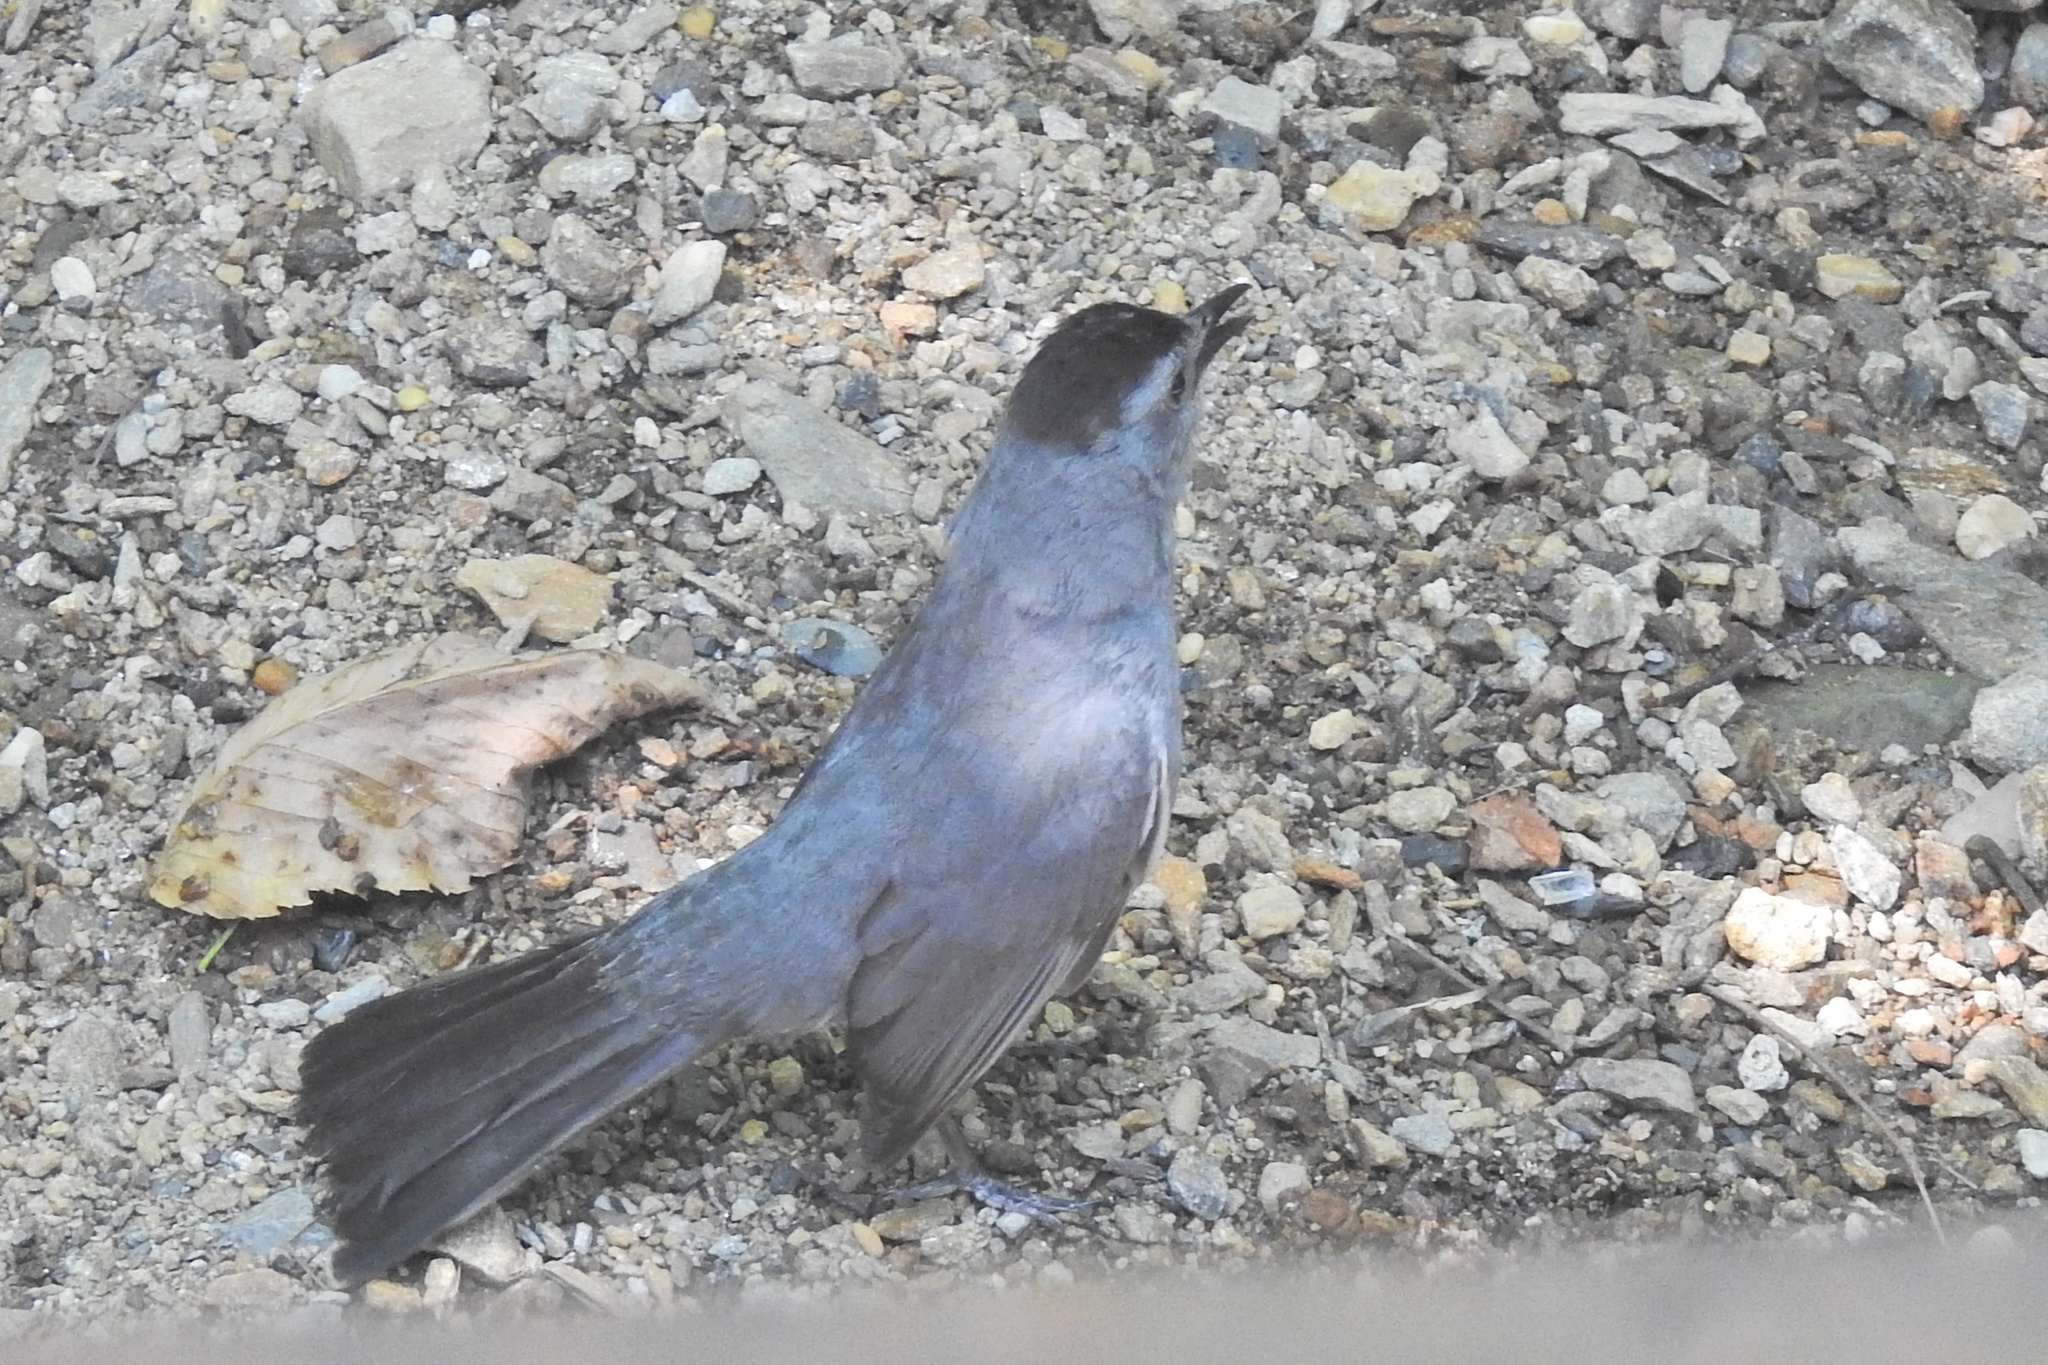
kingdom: Animalia
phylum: Chordata
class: Aves
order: Passeriformes
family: Mimidae
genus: Dumetella
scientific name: Dumetella carolinensis
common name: Gray catbird
